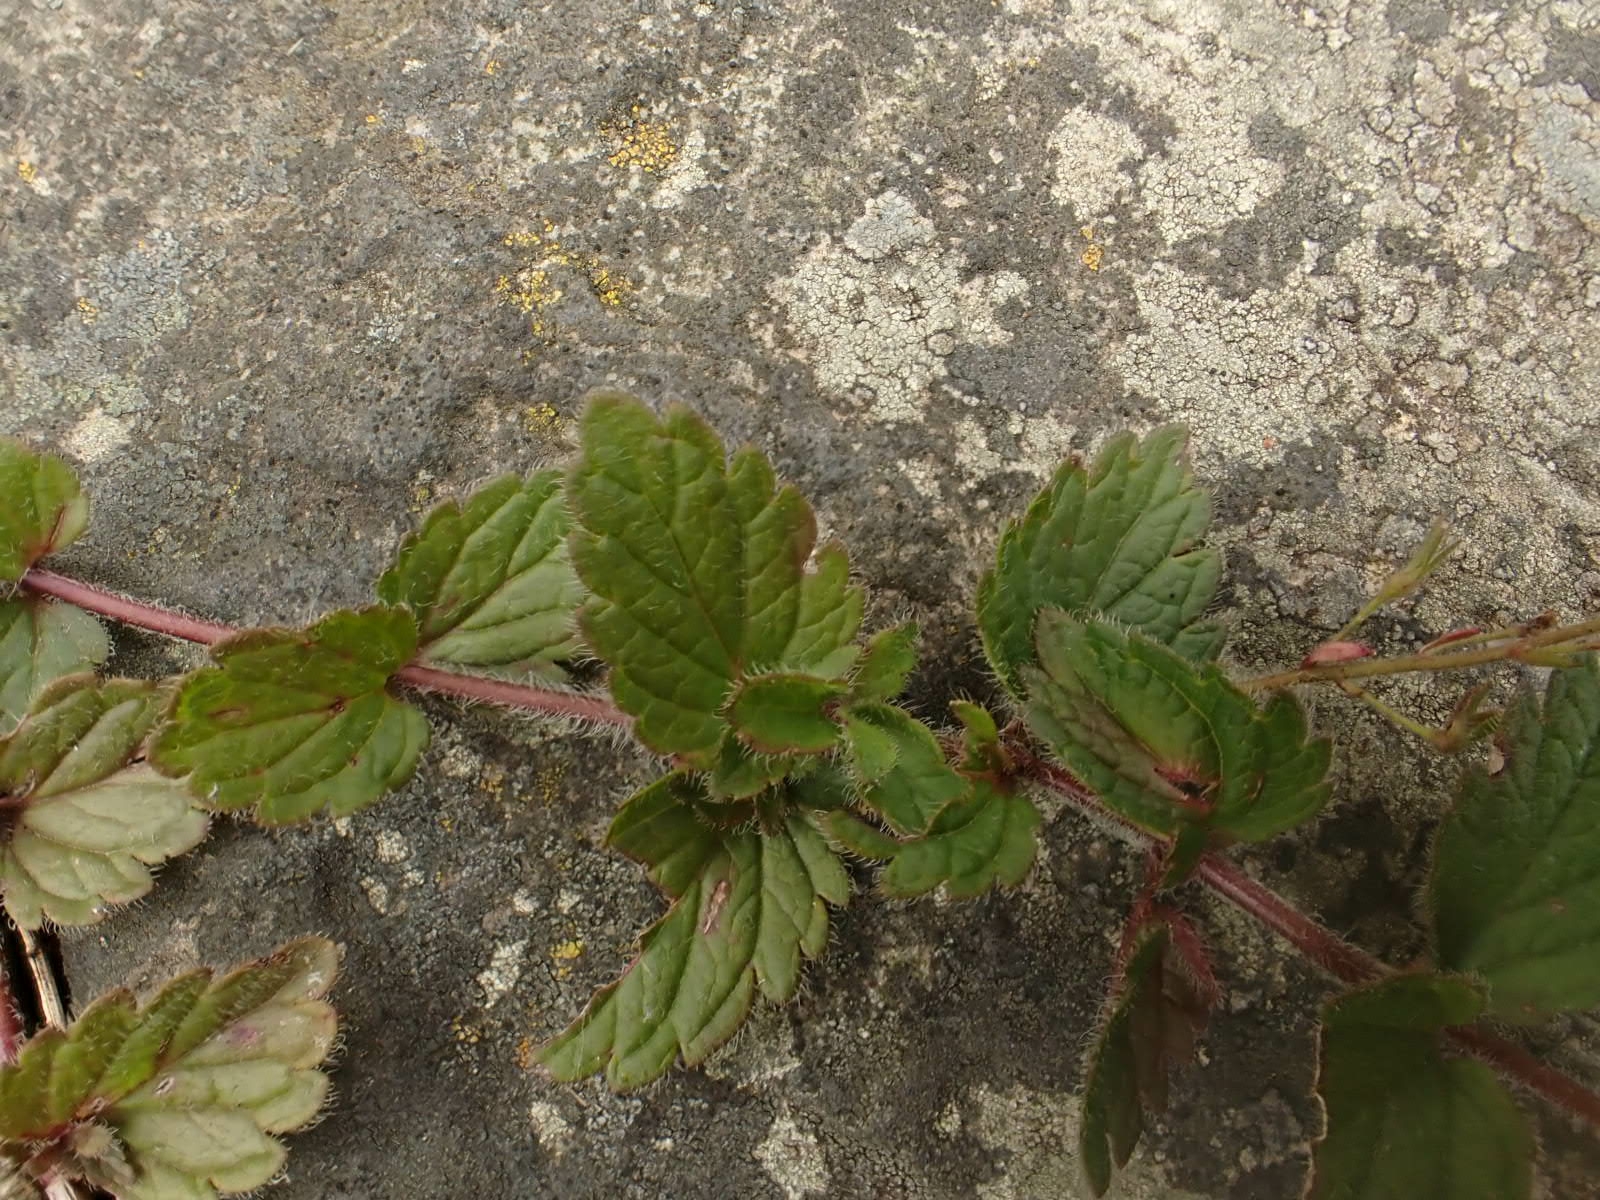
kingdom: Plantae
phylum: Tracheophyta
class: Magnoliopsida
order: Lamiales
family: Plantaginaceae
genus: Veronica
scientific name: Veronica chamaedrys
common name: Germander speedwell
